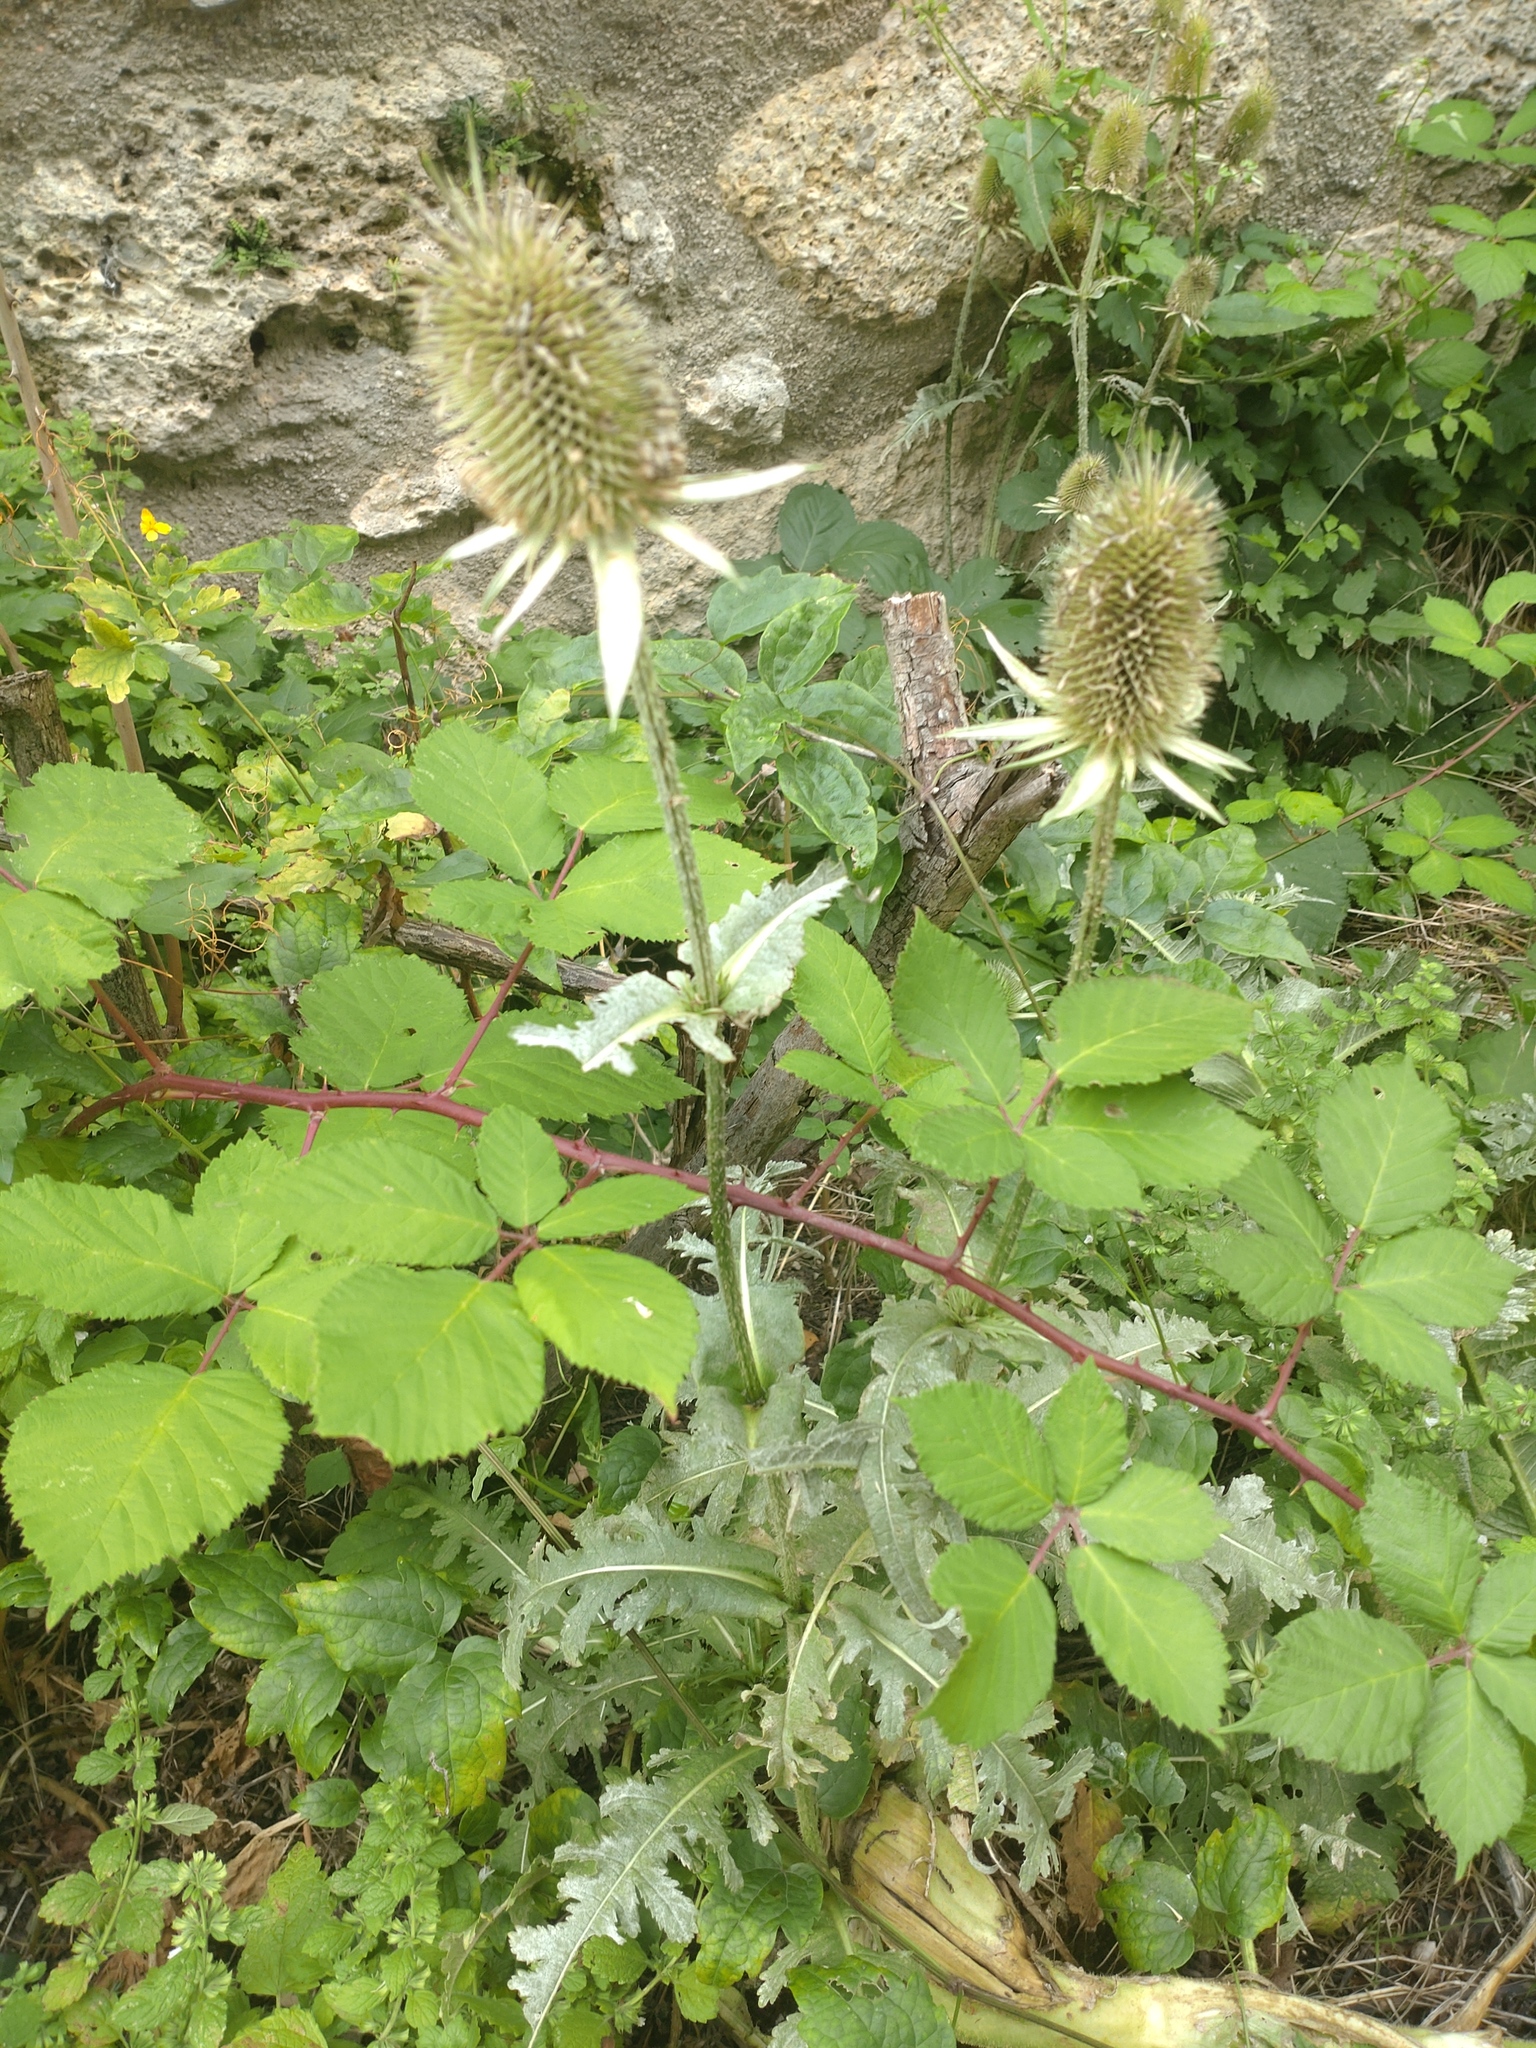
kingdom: Plantae
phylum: Tracheophyta
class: Magnoliopsida
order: Dipsacales
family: Caprifoliaceae
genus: Dipsacus
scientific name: Dipsacus laciniatus
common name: Cut-leaved teasel
